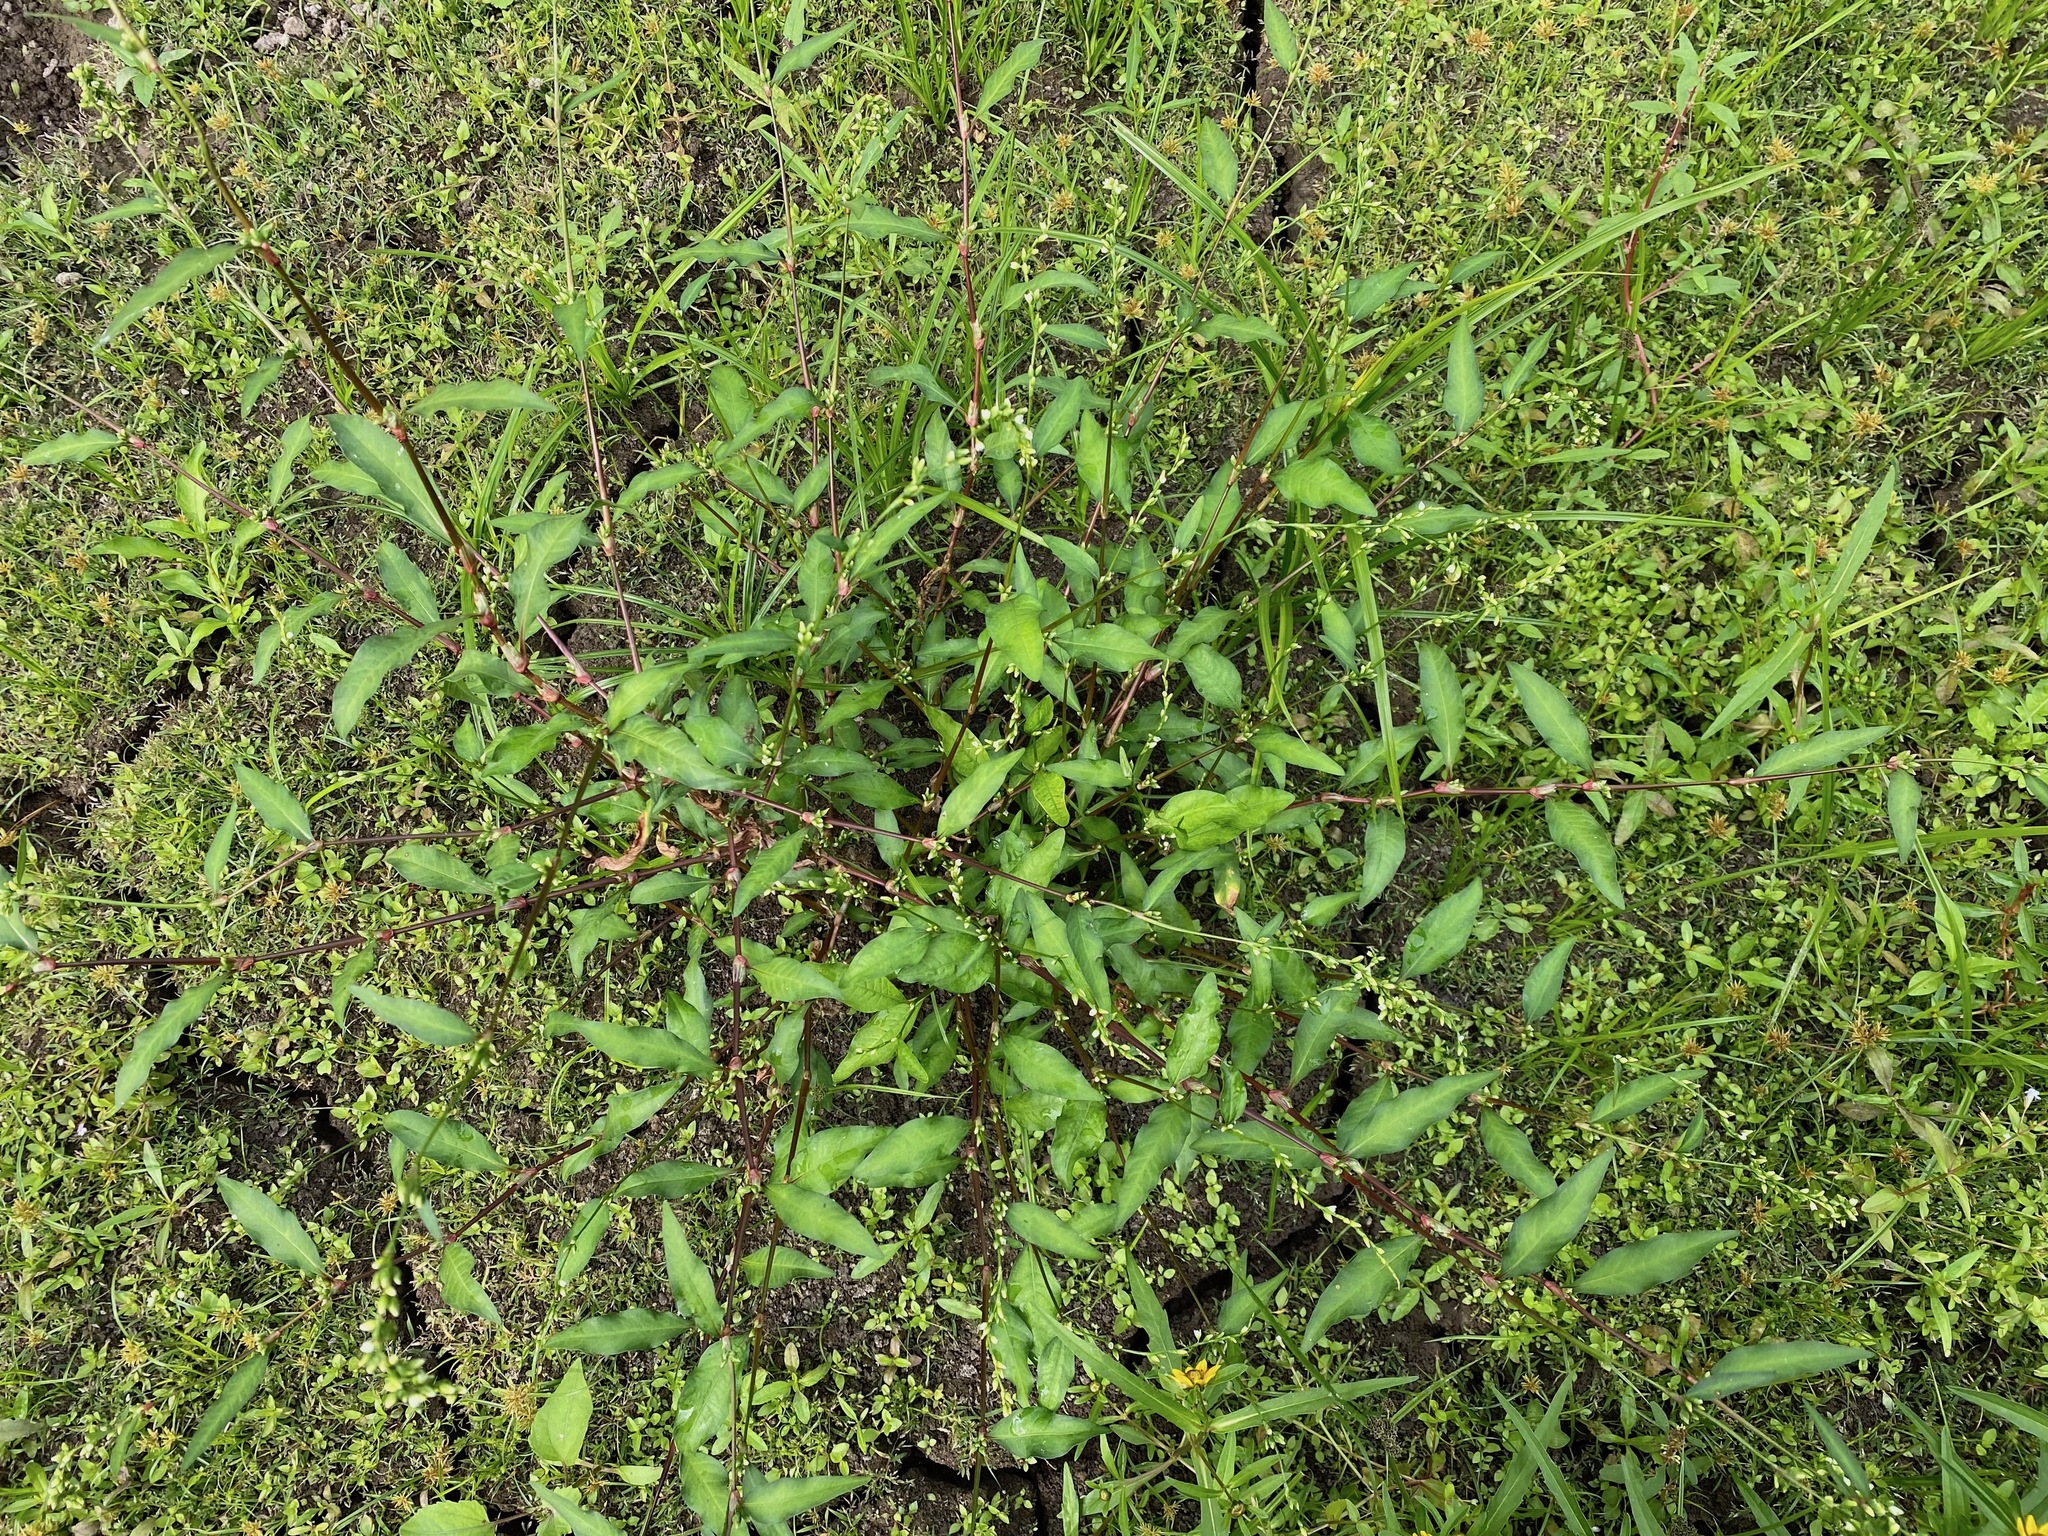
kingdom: Plantae
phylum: Tracheophyta
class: Magnoliopsida
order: Caryophyllales
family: Polygonaceae
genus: Persicaria
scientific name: Persicaria hydropiper
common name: Water-pepper
